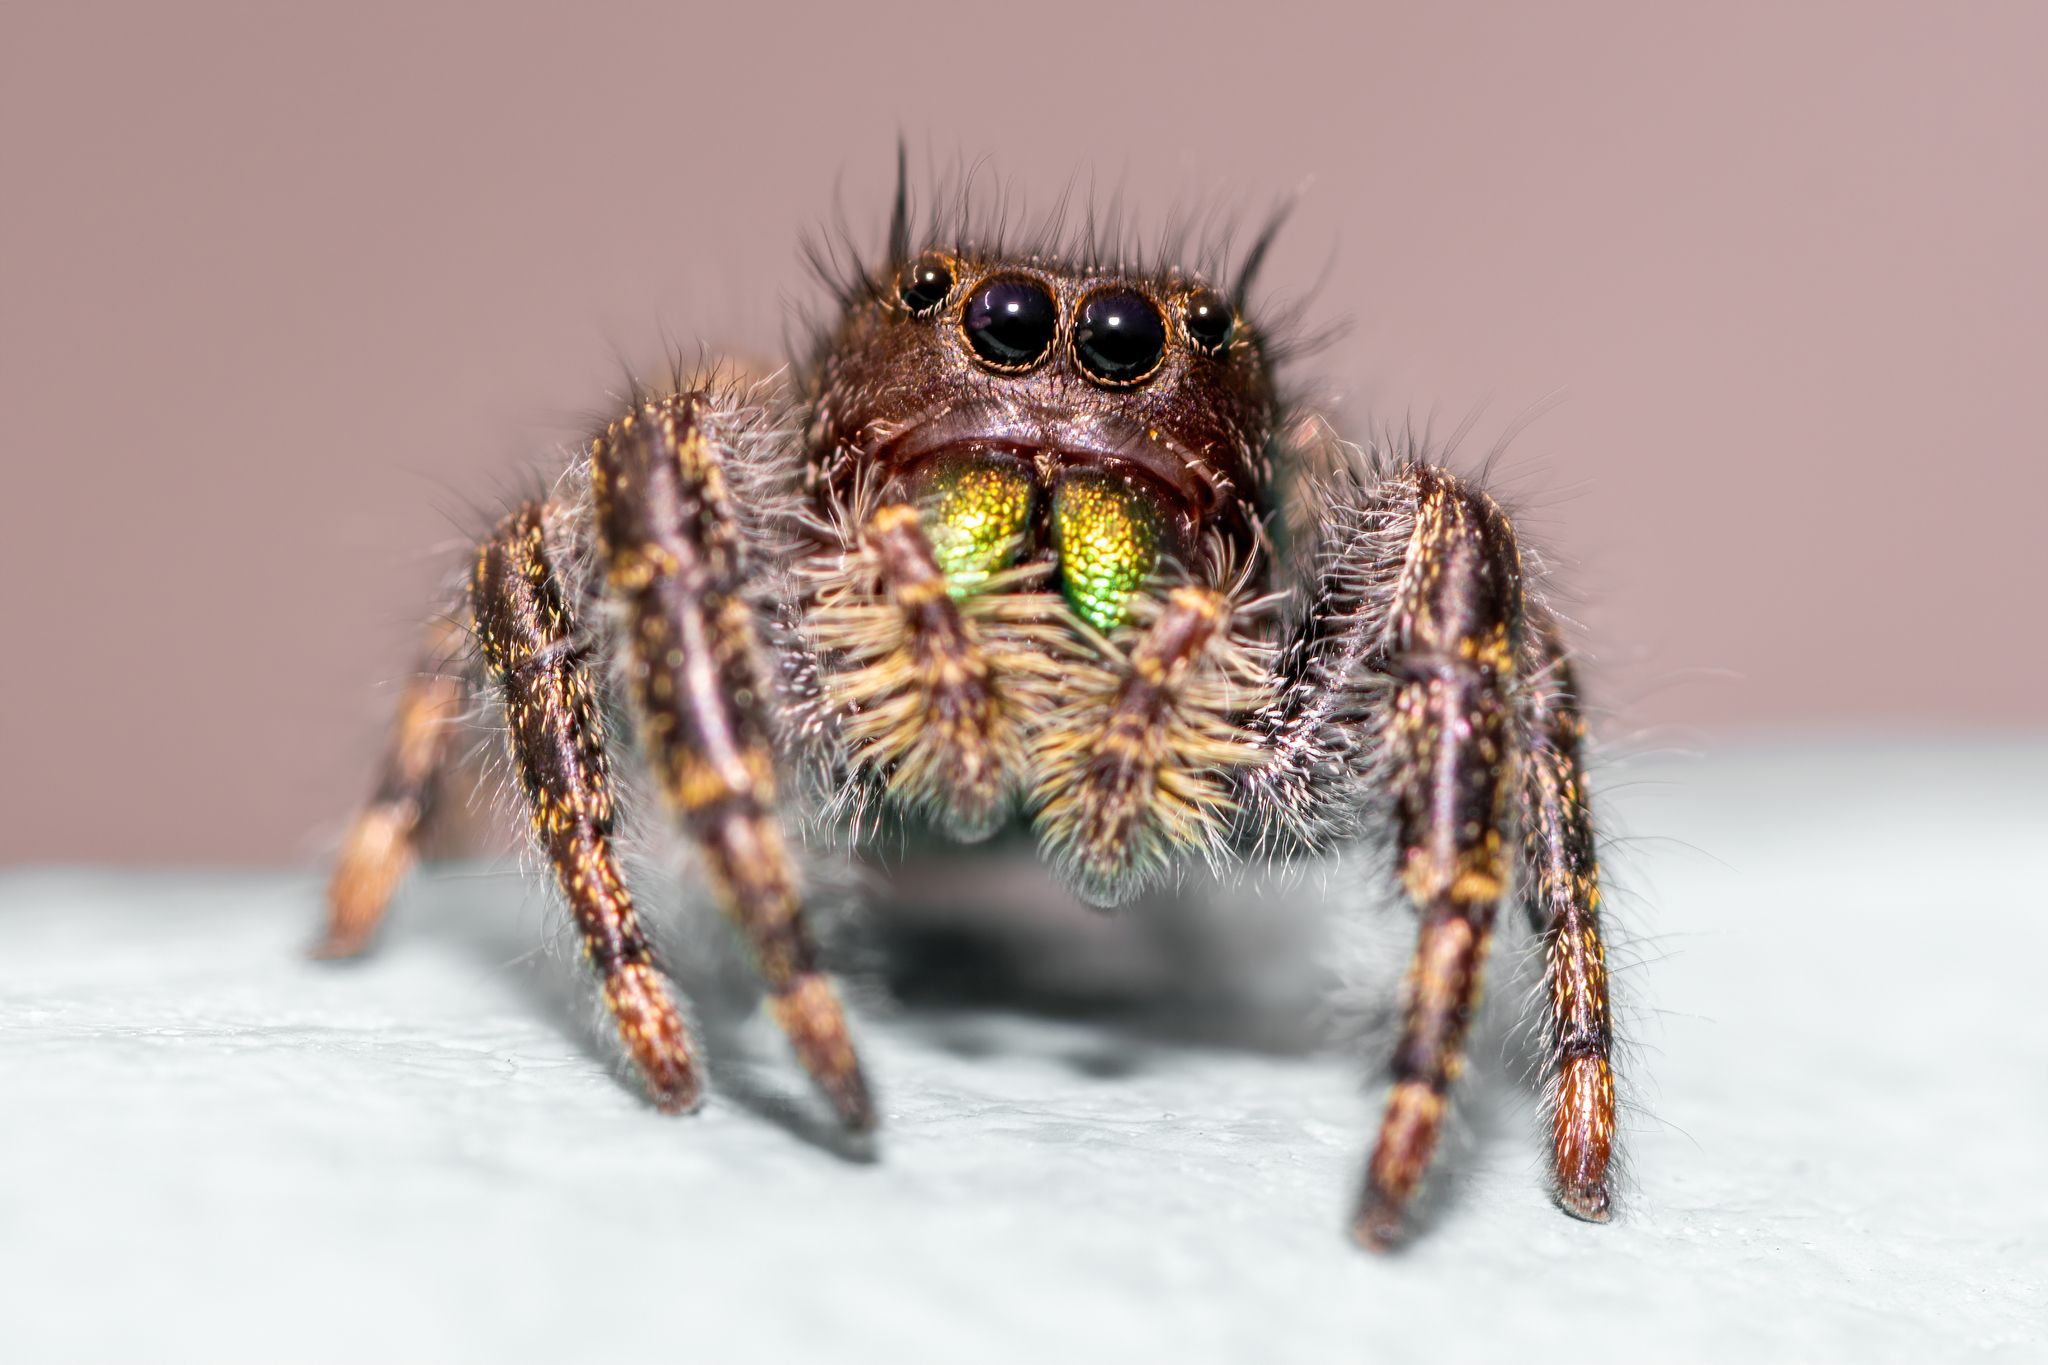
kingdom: Animalia
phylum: Arthropoda
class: Arachnida
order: Araneae
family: Salticidae
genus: Phidippus
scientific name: Phidippus audax
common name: Bold jumper
